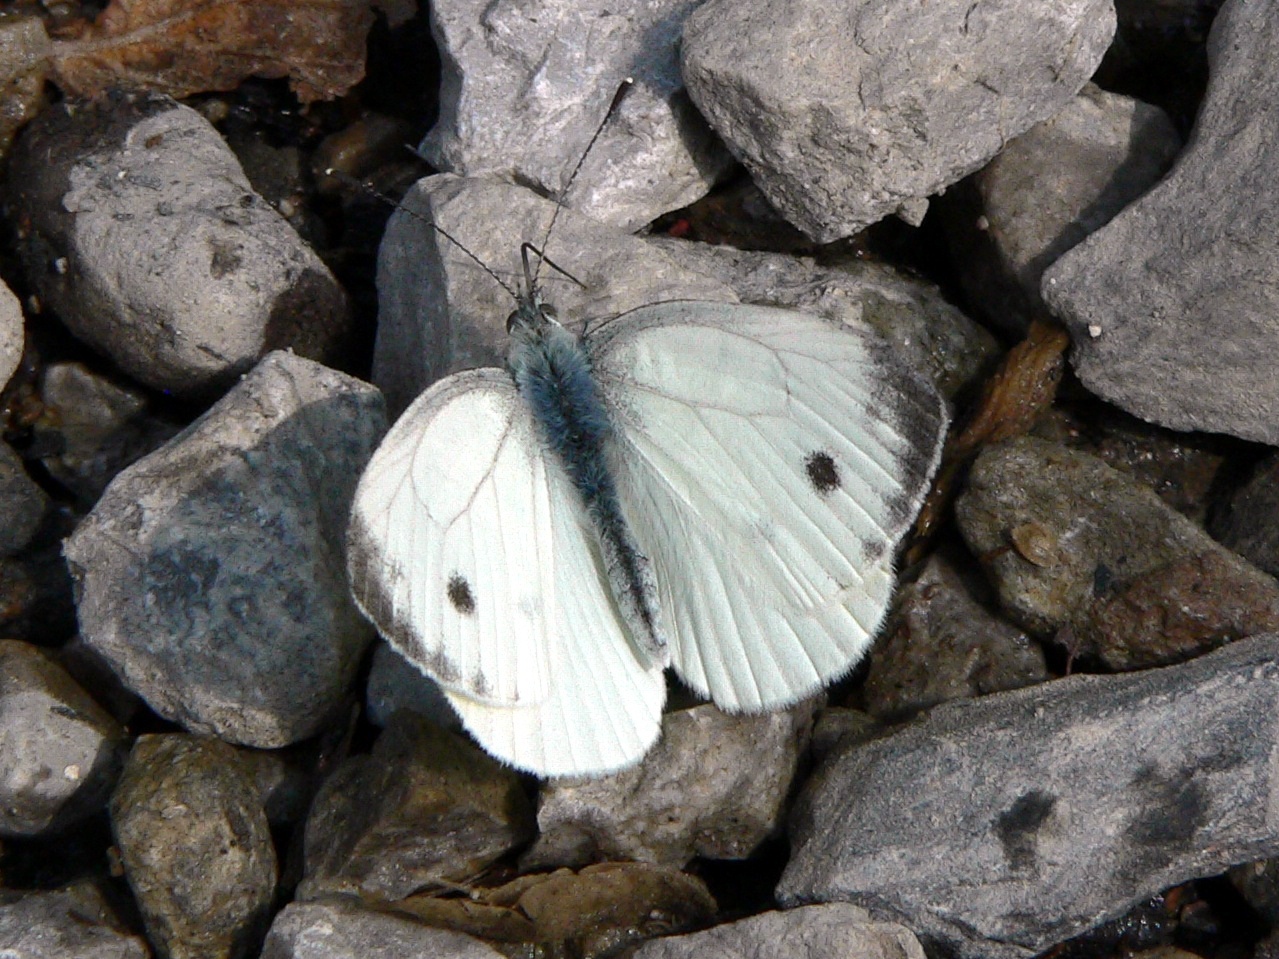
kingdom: Animalia
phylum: Arthropoda
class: Insecta
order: Lepidoptera
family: Pieridae
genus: Pieris
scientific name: Pieris napi
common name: Green-veined white
